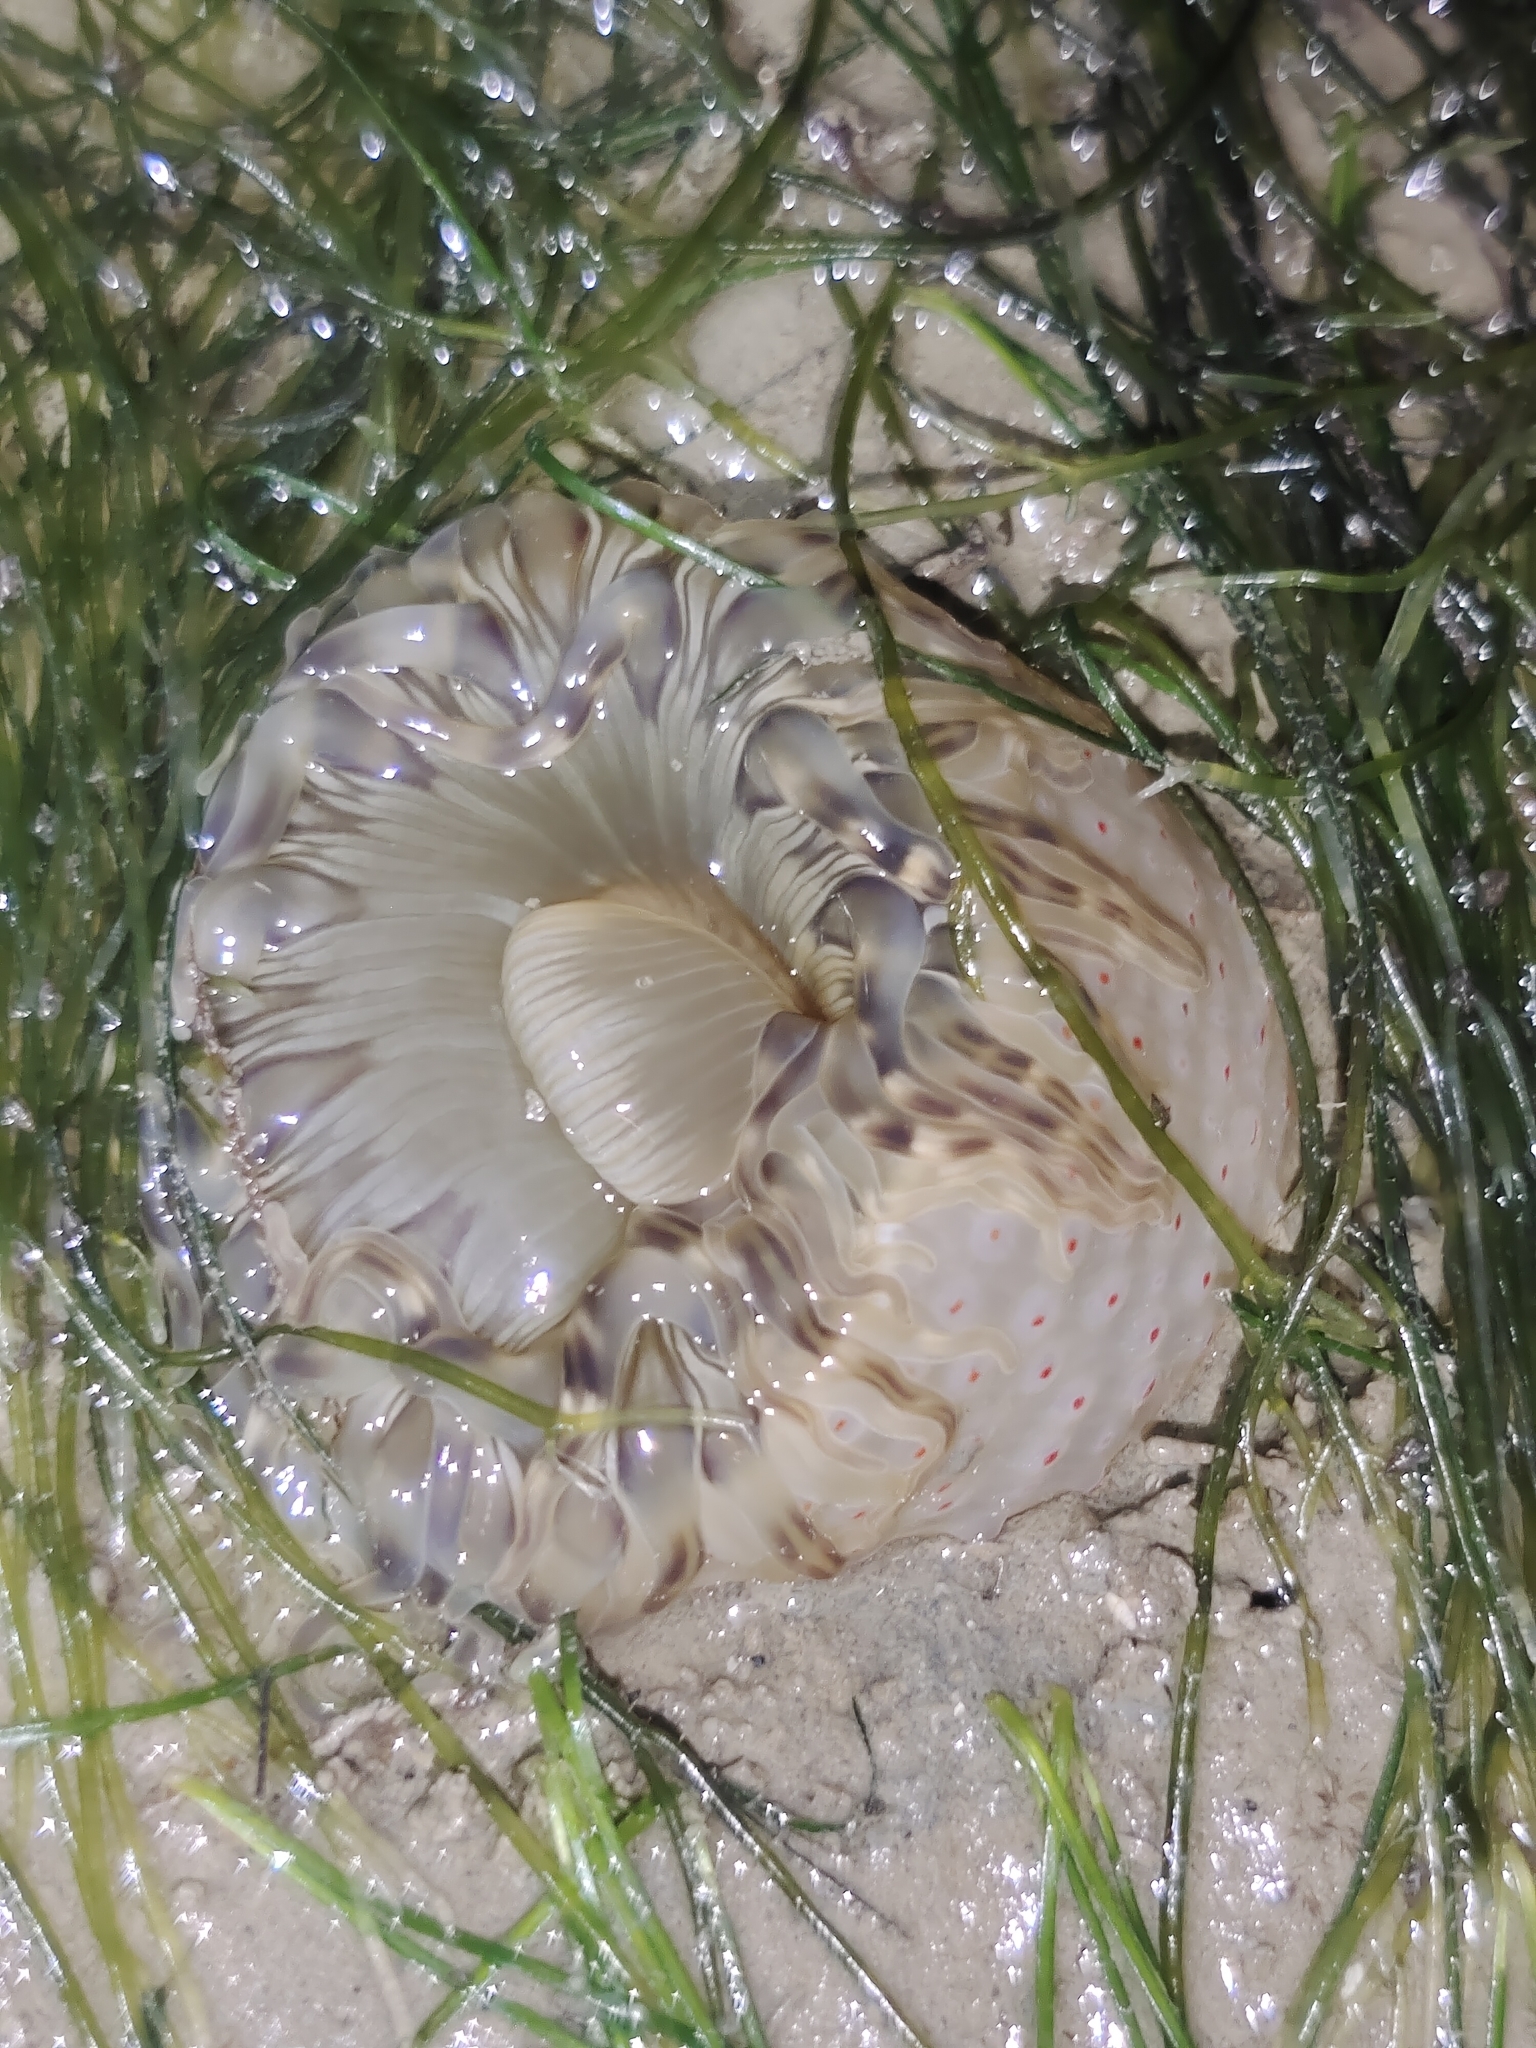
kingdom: Animalia
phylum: Cnidaria
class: Anthozoa
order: Actiniaria
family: Actiniidae
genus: Condylactis
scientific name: Condylactis
